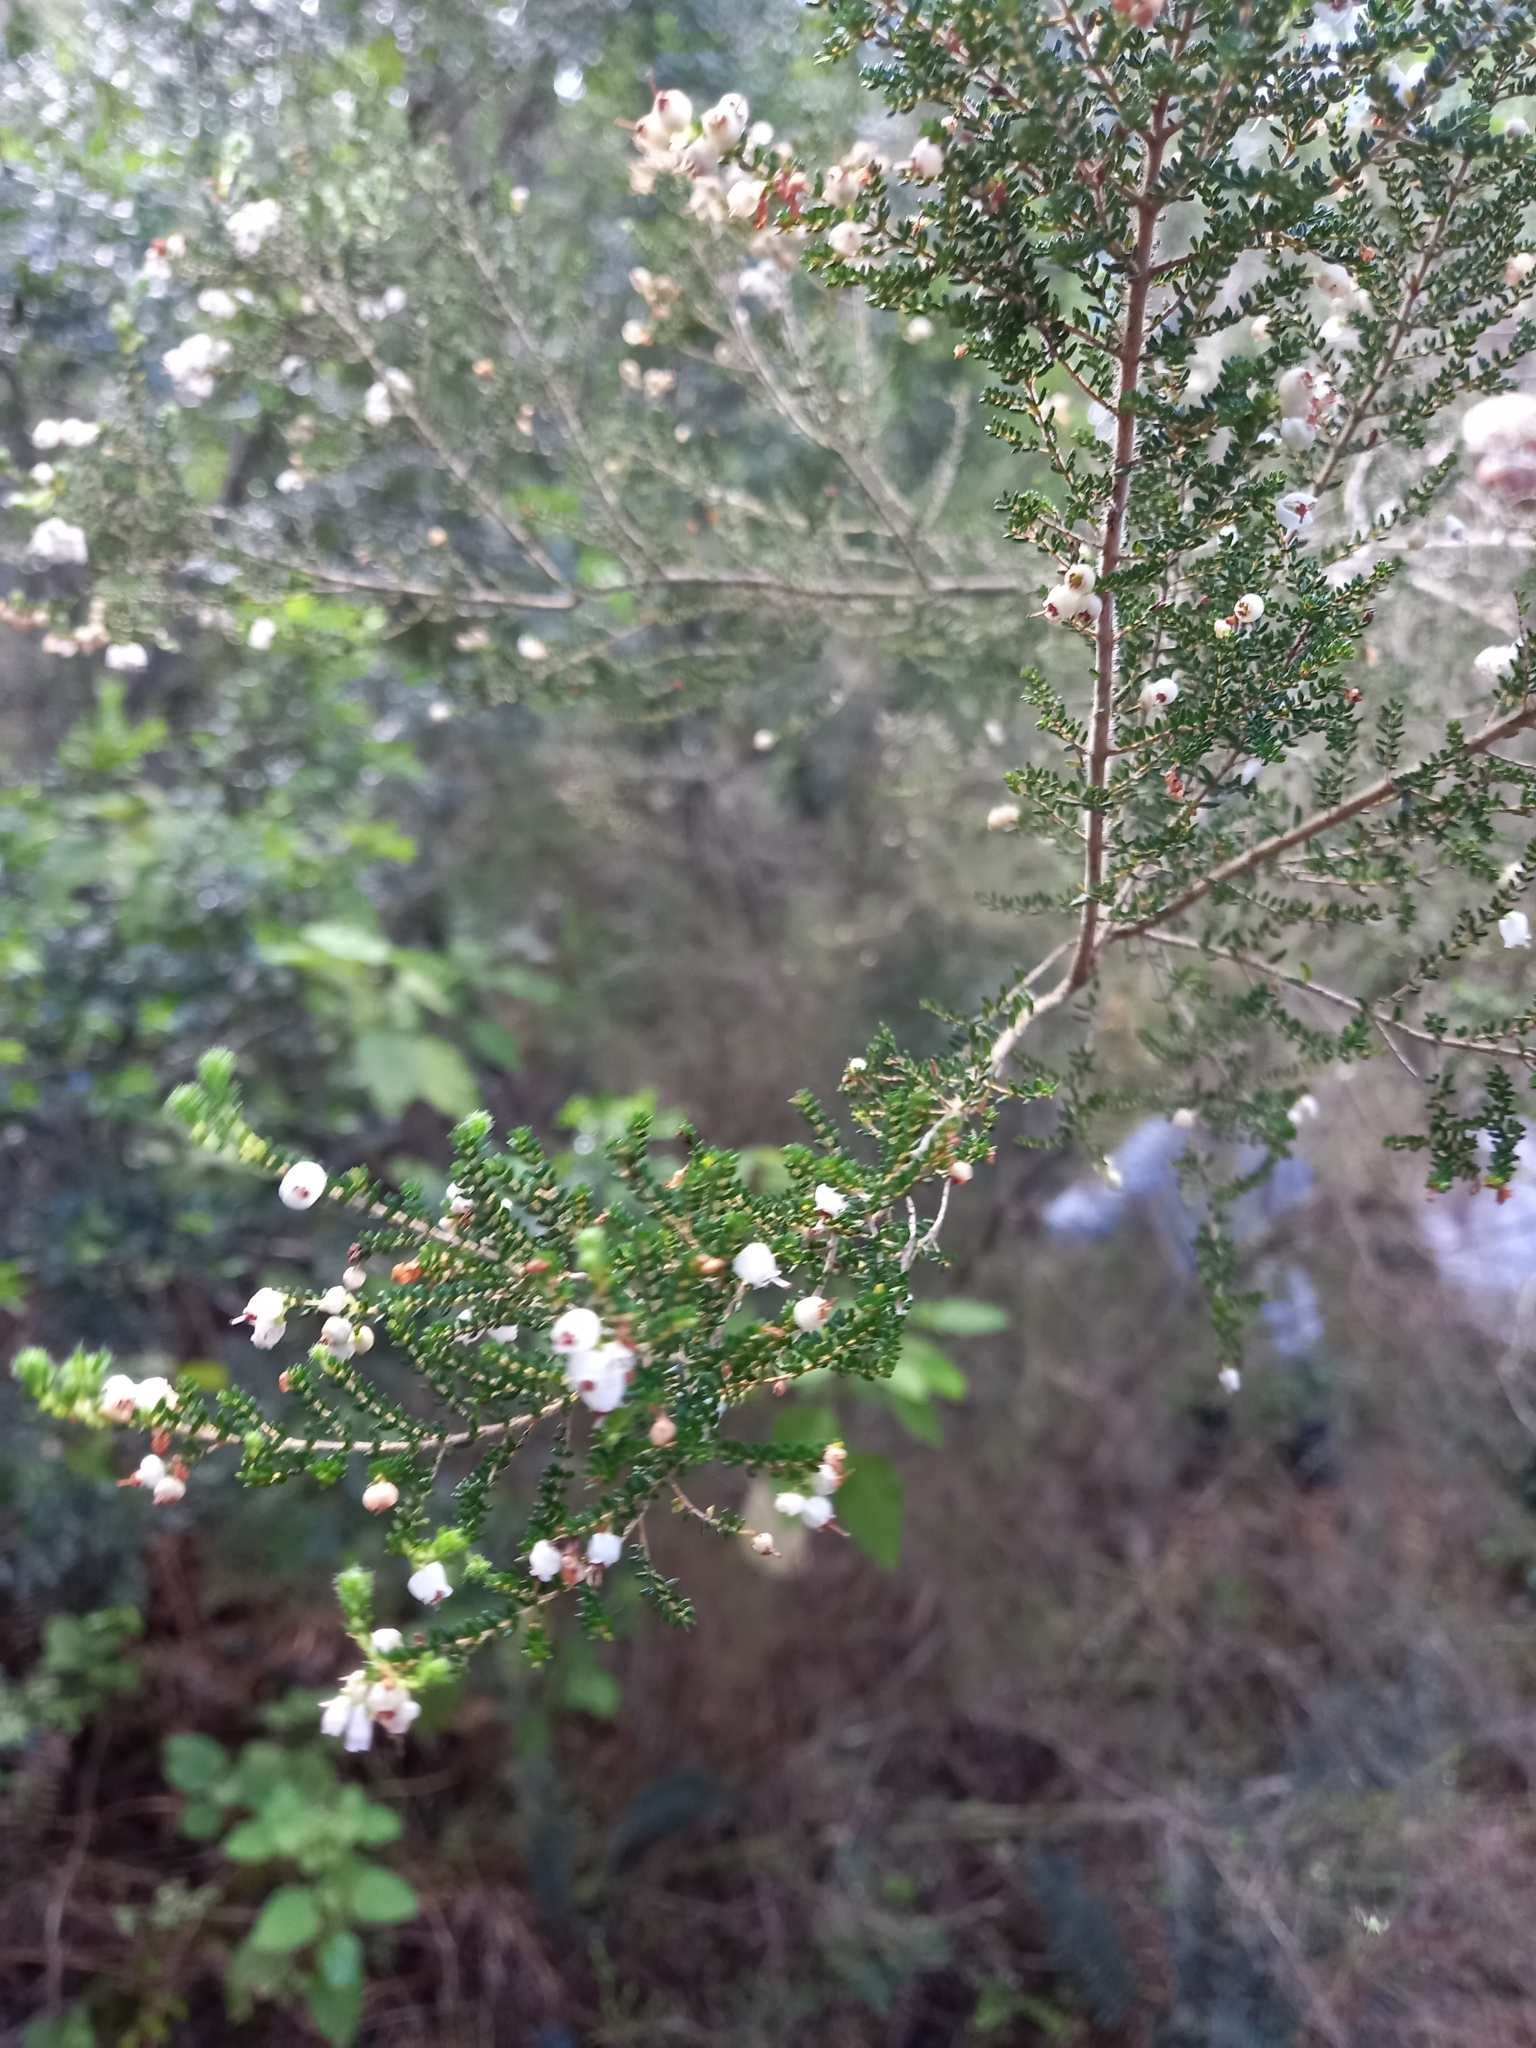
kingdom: Plantae
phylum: Tracheophyta
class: Magnoliopsida
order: Ericales
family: Ericaceae
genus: Erica
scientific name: Erica scabriuscula
